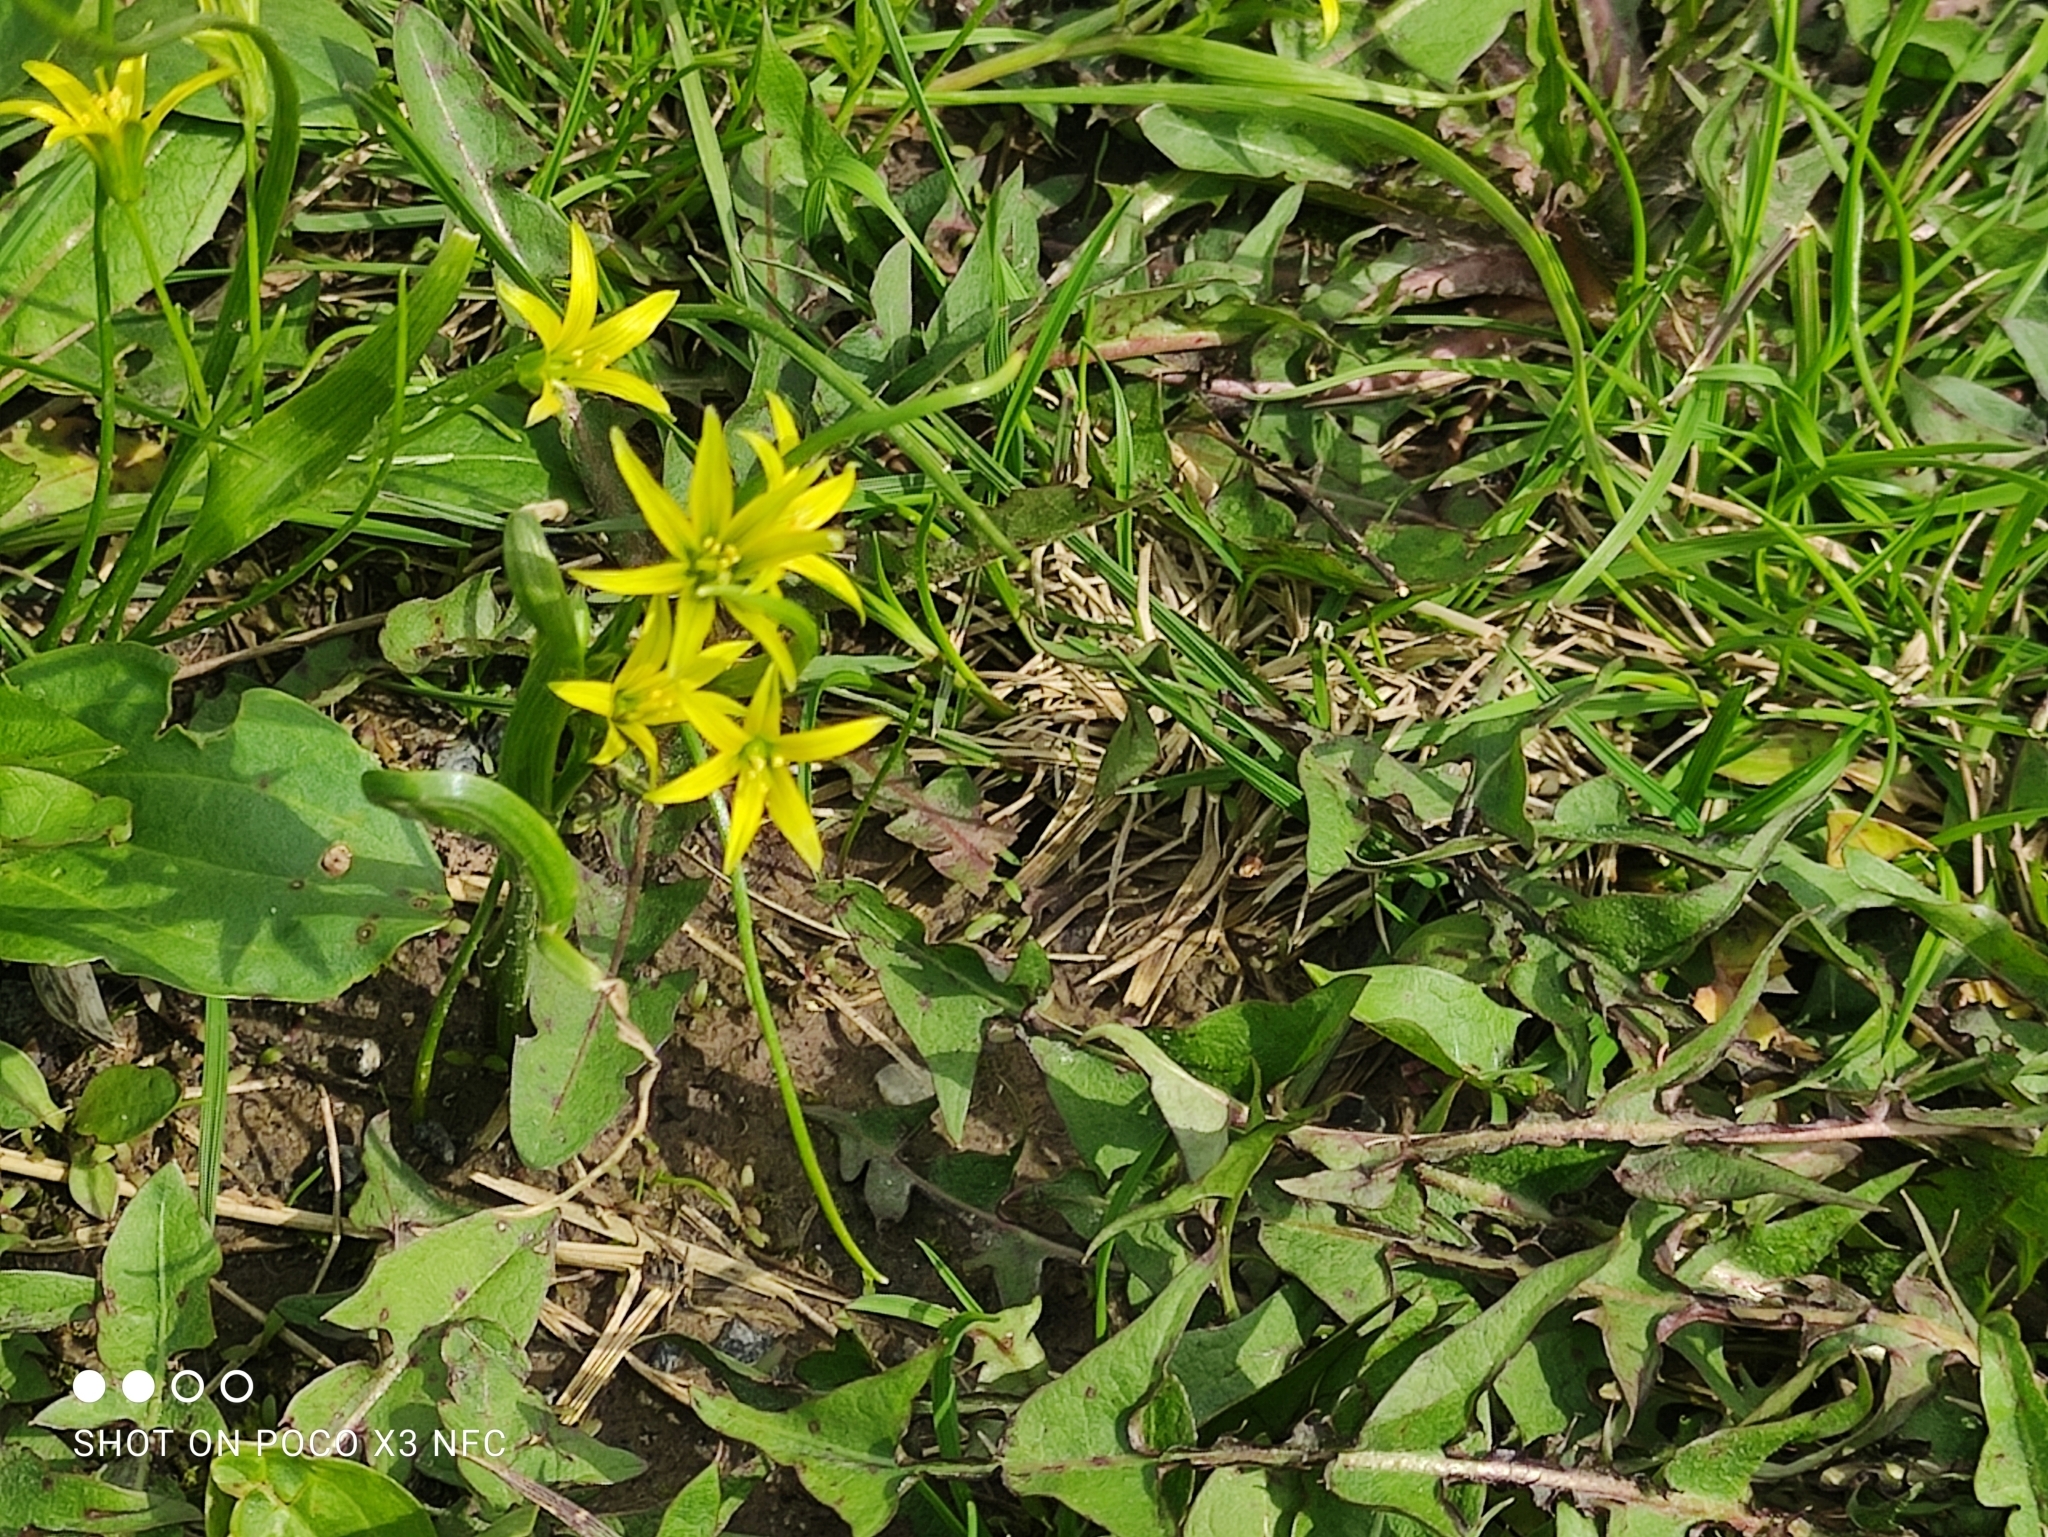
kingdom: Plantae
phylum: Tracheophyta
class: Liliopsida
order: Liliales
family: Liliaceae
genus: Gagea
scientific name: Gagea minima
